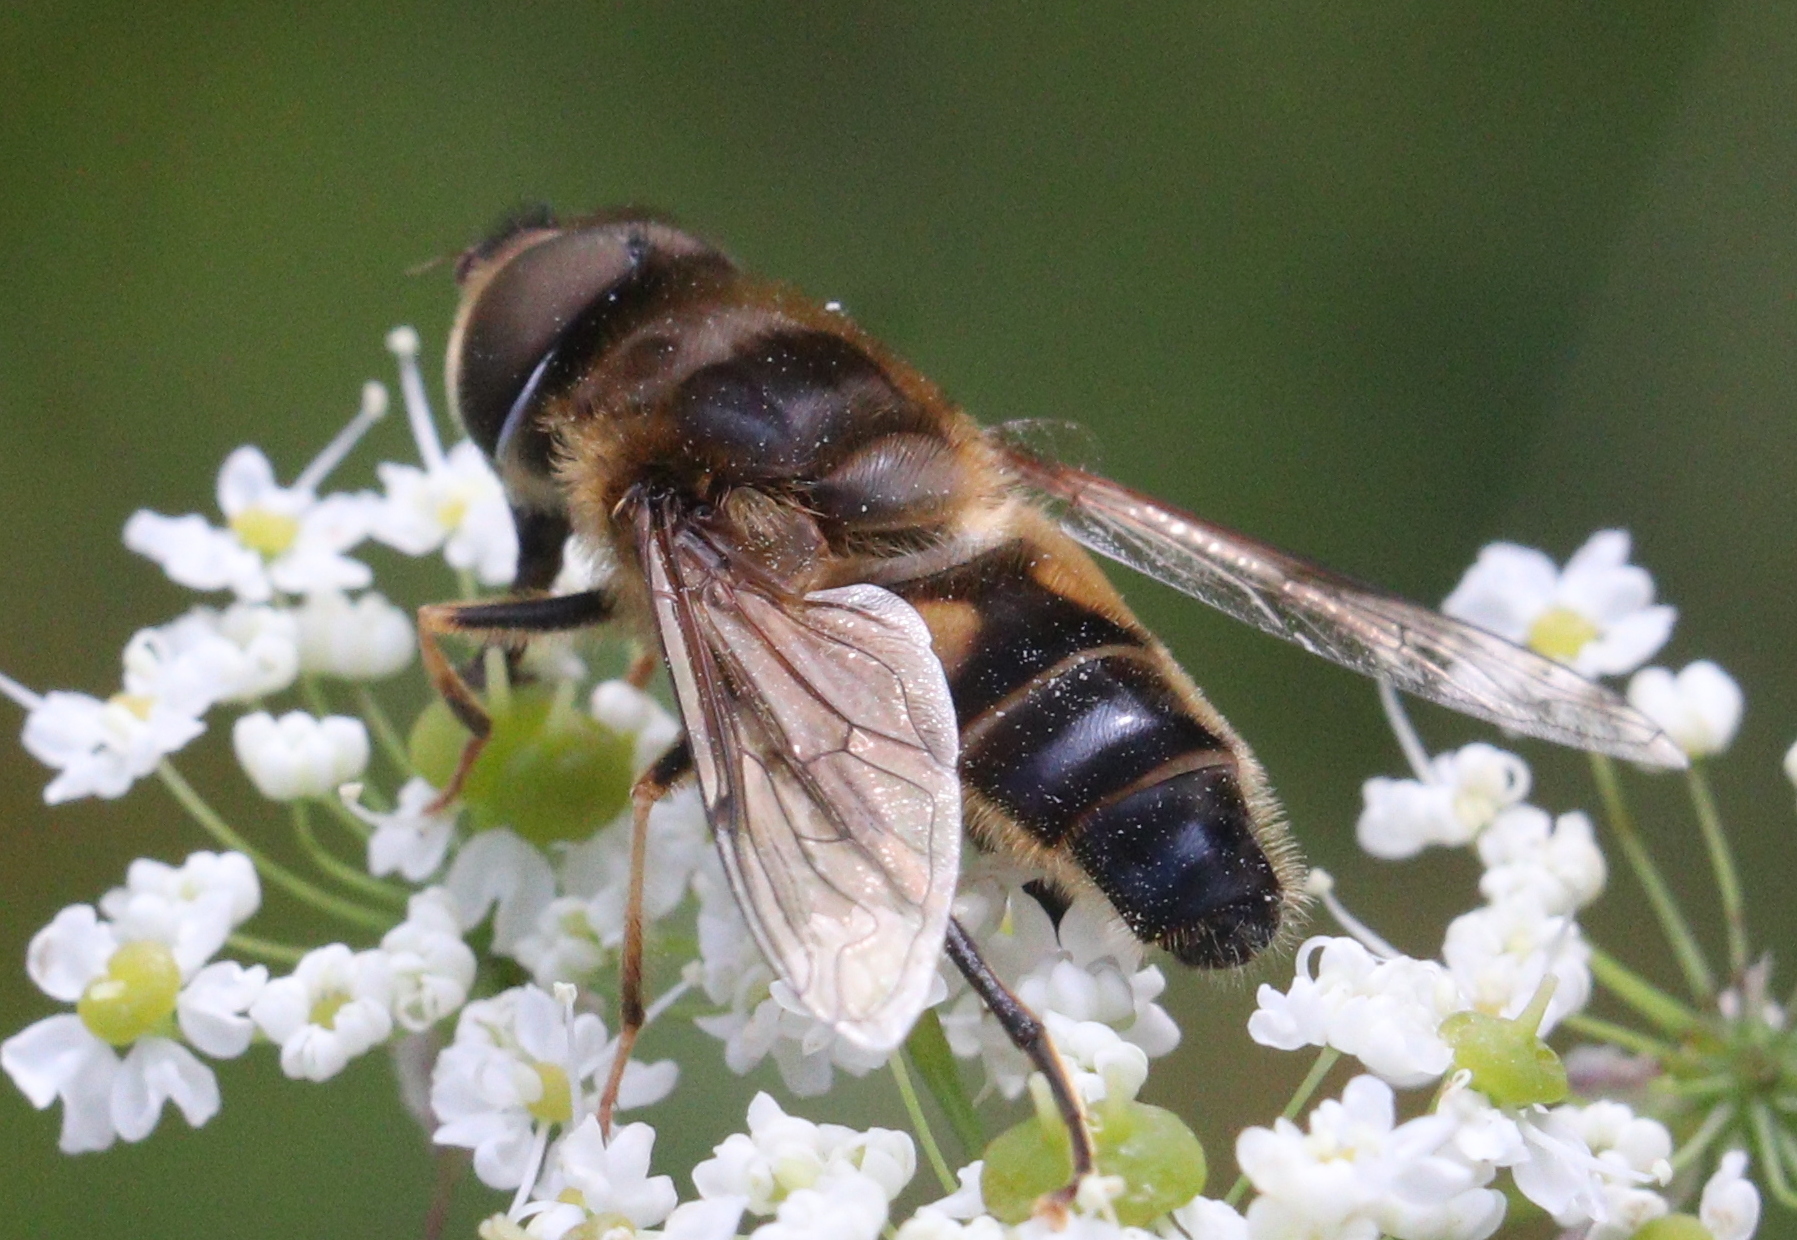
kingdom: Animalia
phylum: Arthropoda
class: Insecta
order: Diptera
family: Syrphidae
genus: Eristalis
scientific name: Eristalis pertinax
